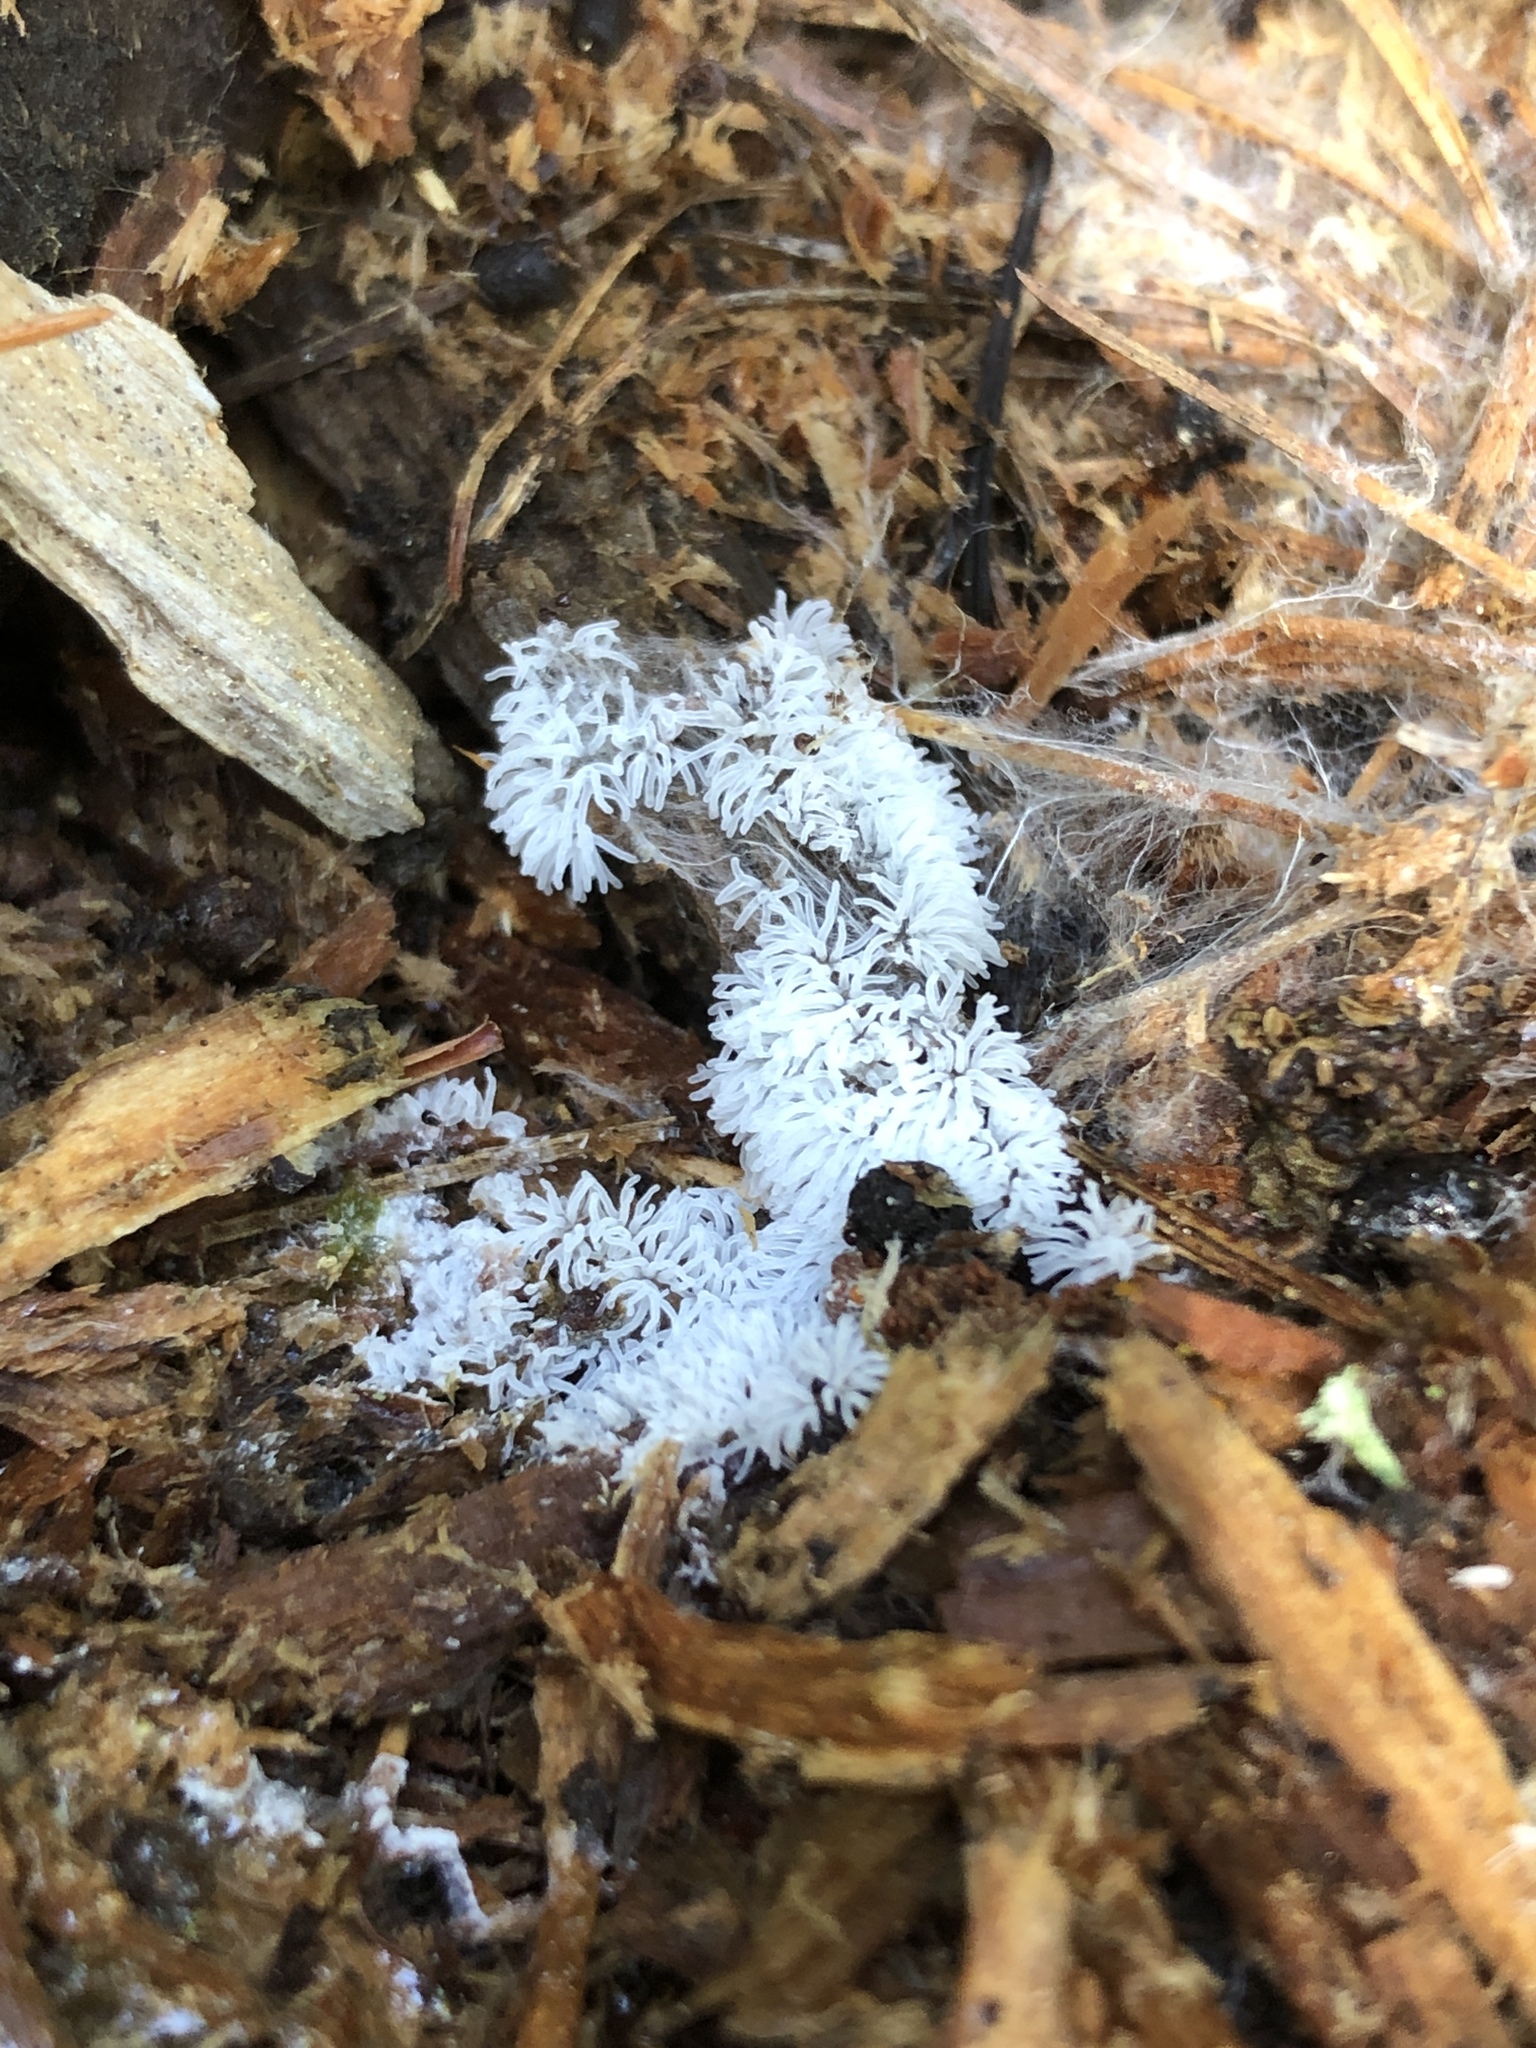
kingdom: Protozoa
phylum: Mycetozoa
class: Protosteliomycetes
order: Ceratiomyxales
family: Ceratiomyxaceae
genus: Ceratiomyxa
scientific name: Ceratiomyxa fruticulosa
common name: Honeycomb coral slime mold
